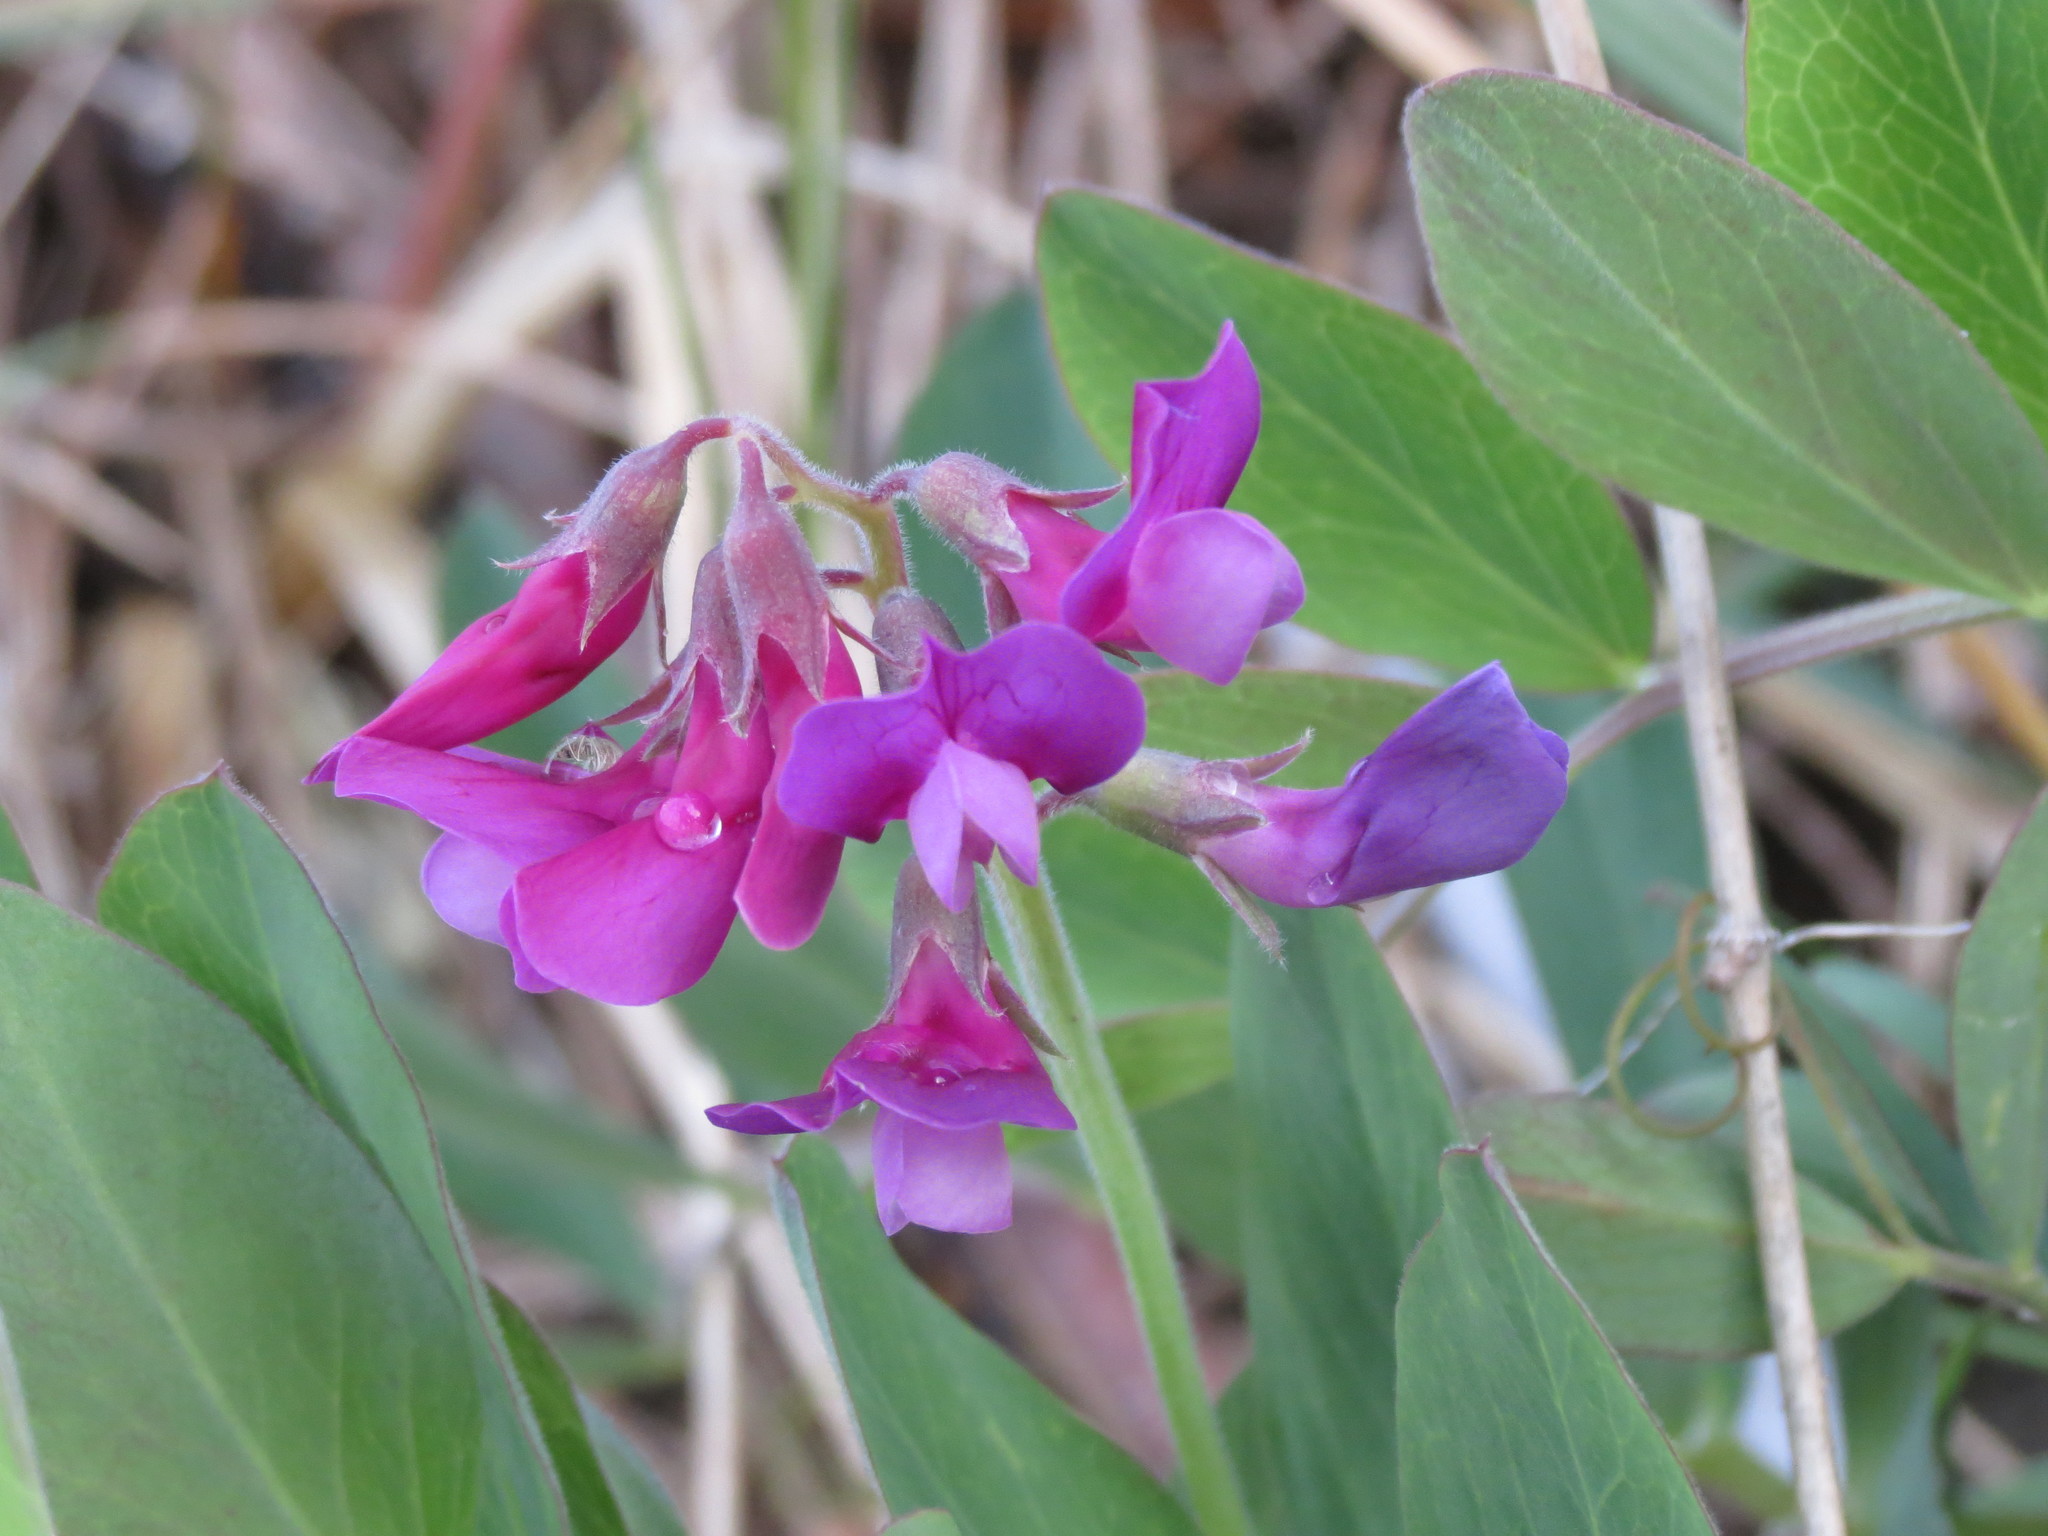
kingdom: Plantae
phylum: Tracheophyta
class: Magnoliopsida
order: Fabales
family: Fabaceae
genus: Lathyrus
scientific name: Lathyrus japonicus
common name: Sea pea
